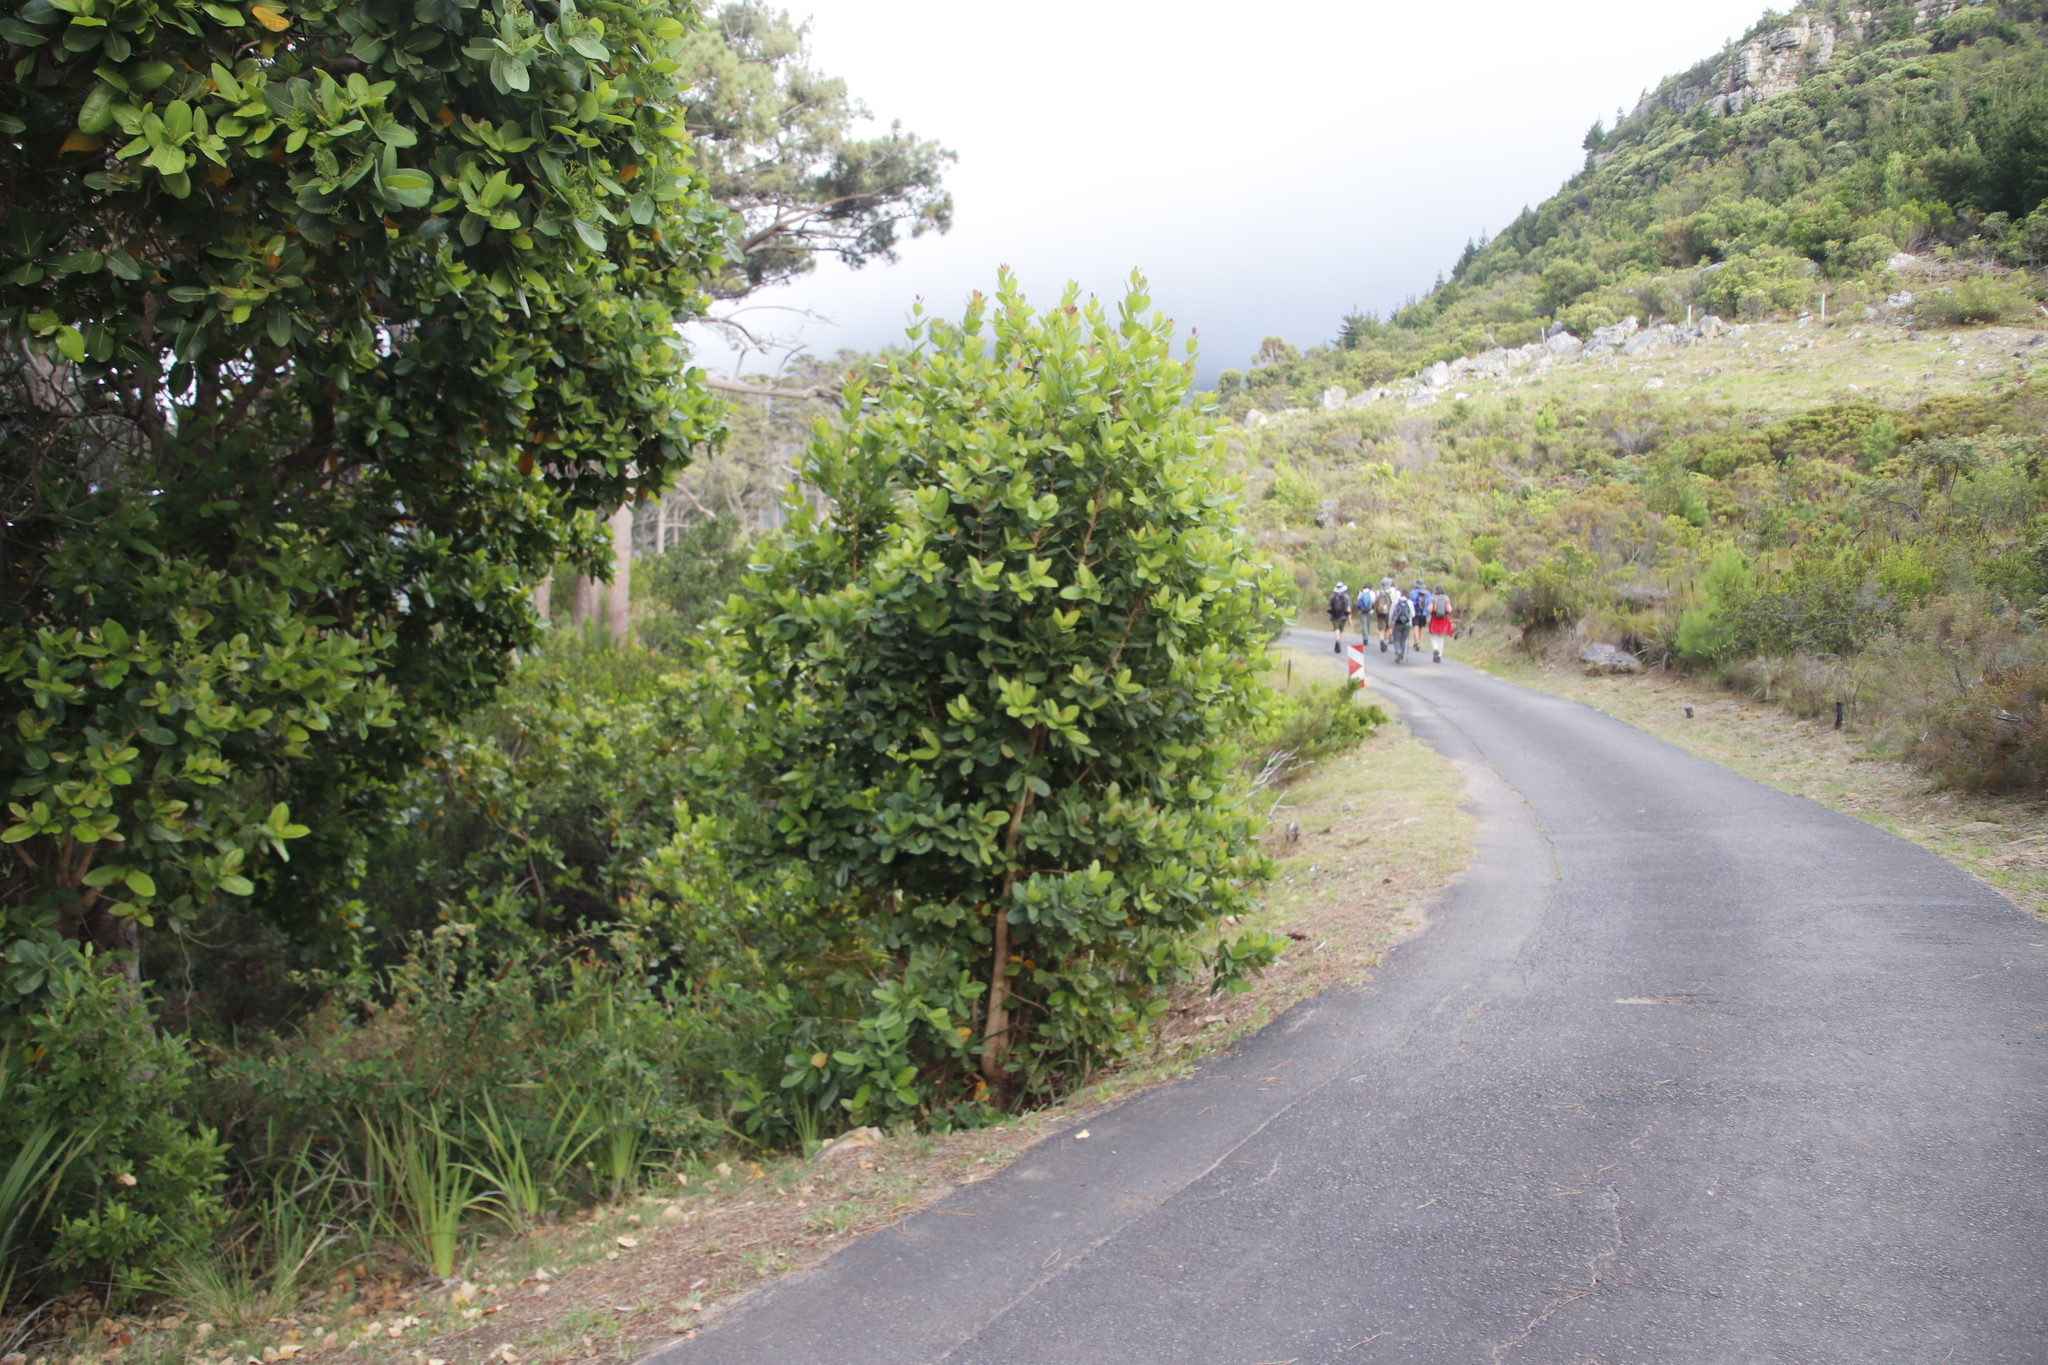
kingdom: Plantae
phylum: Tracheophyta
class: Magnoliopsida
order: Myrtales
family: Myrtaceae
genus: Syzygium
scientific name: Syzygium cordatum
